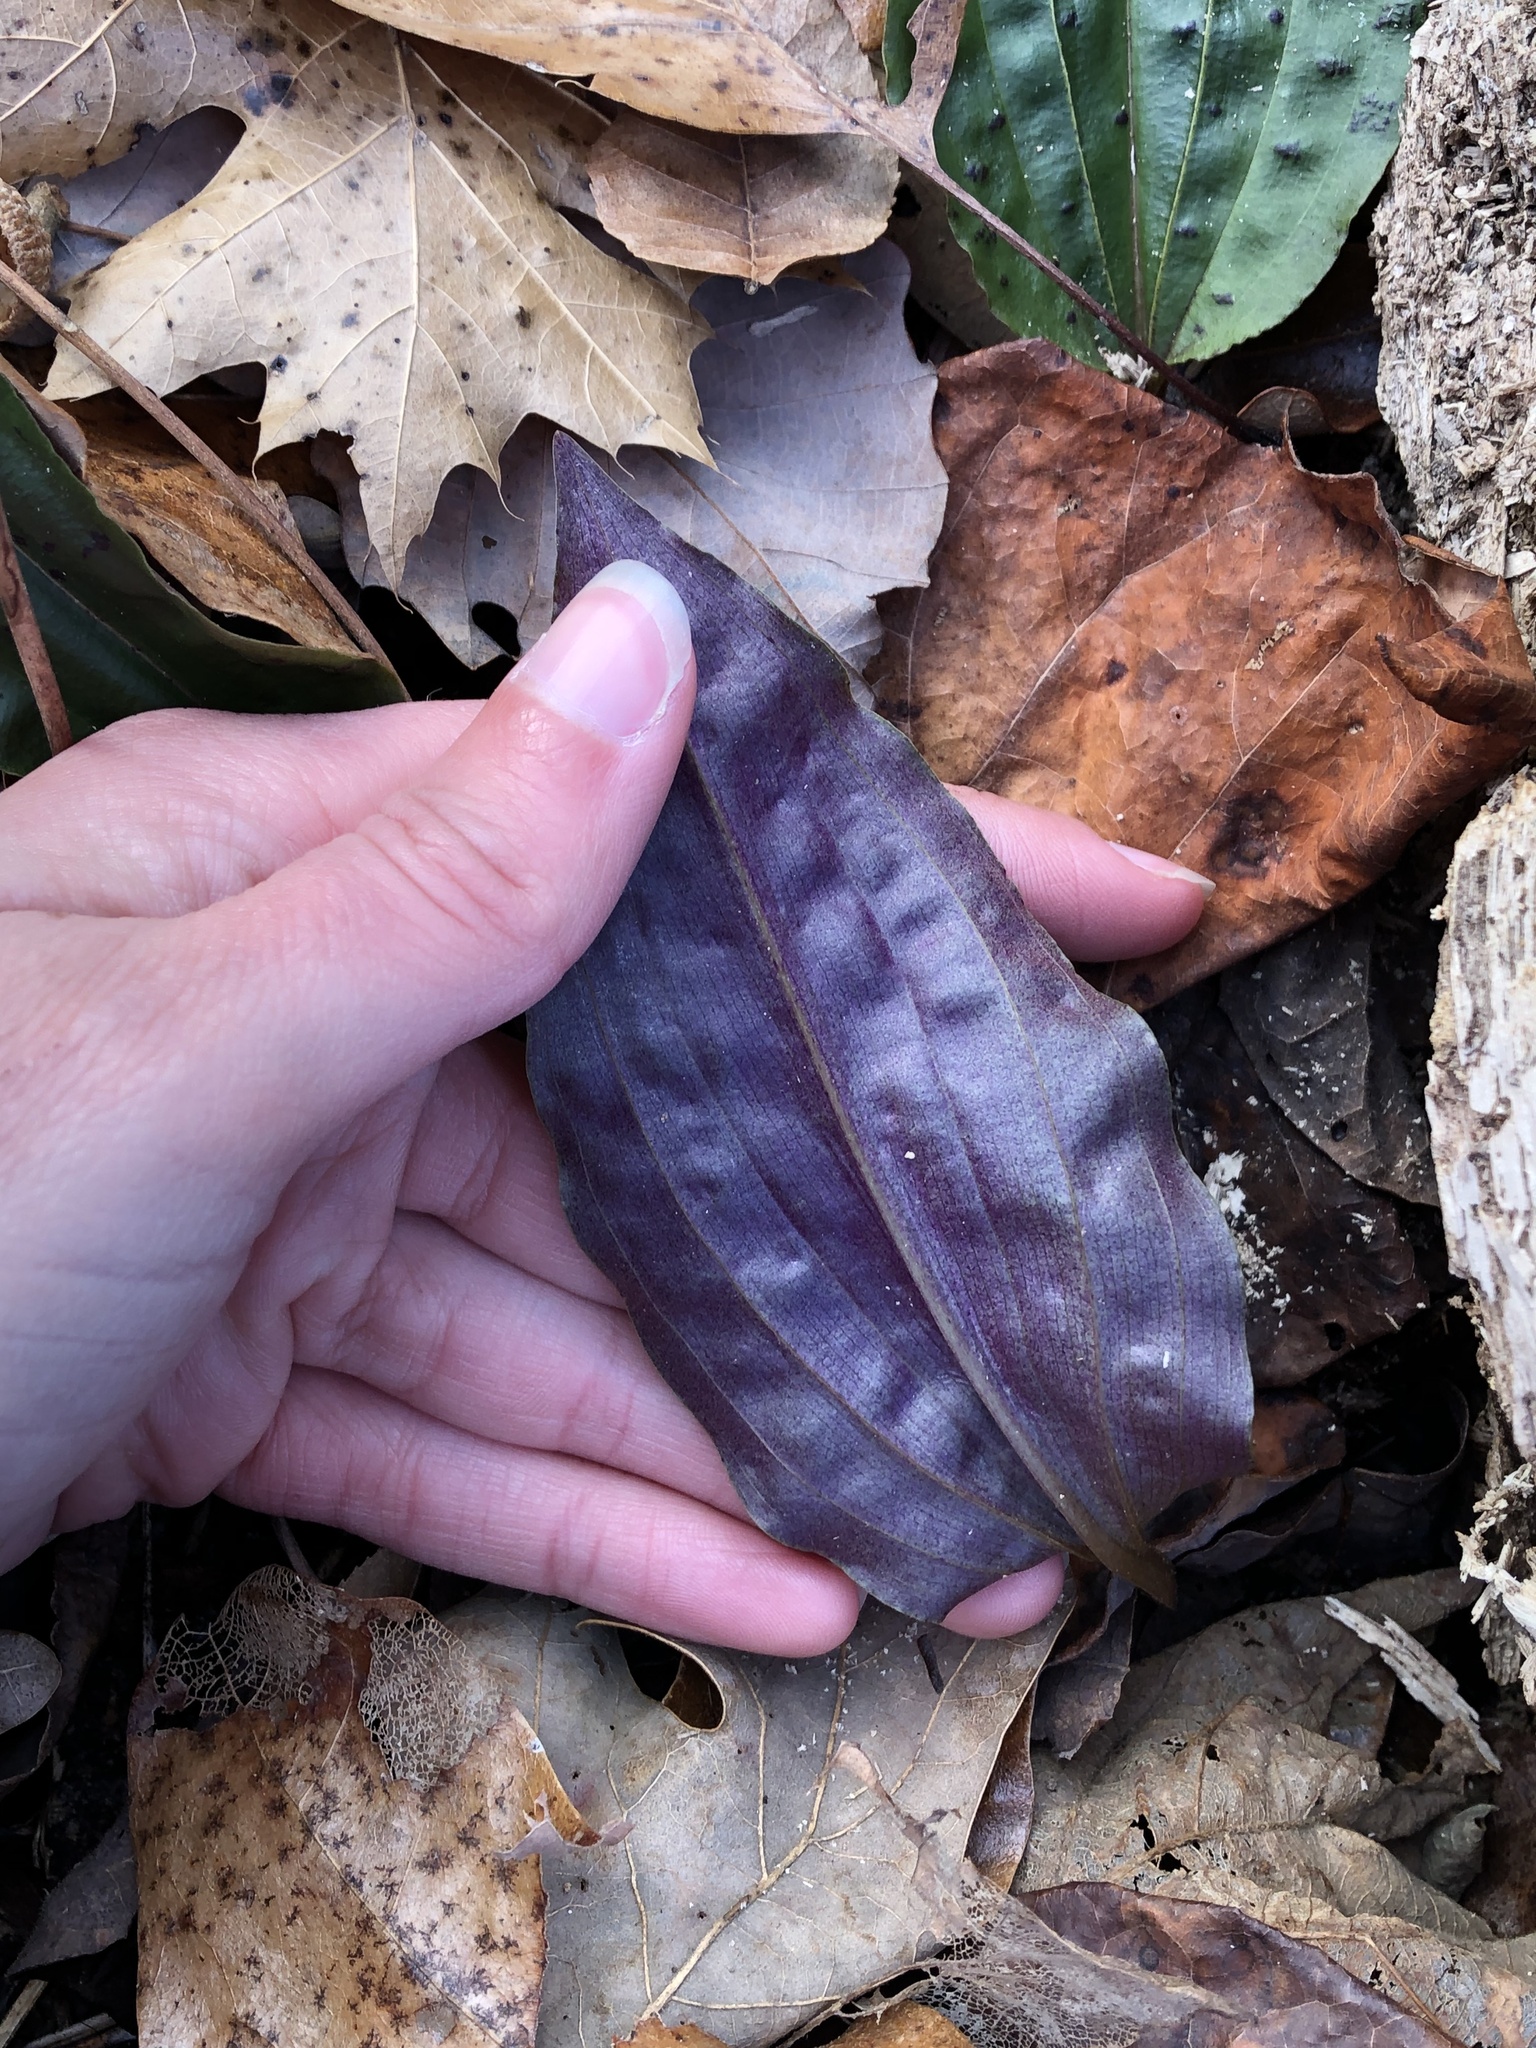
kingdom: Plantae
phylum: Tracheophyta
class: Liliopsida
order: Asparagales
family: Orchidaceae
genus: Tipularia
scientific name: Tipularia discolor
